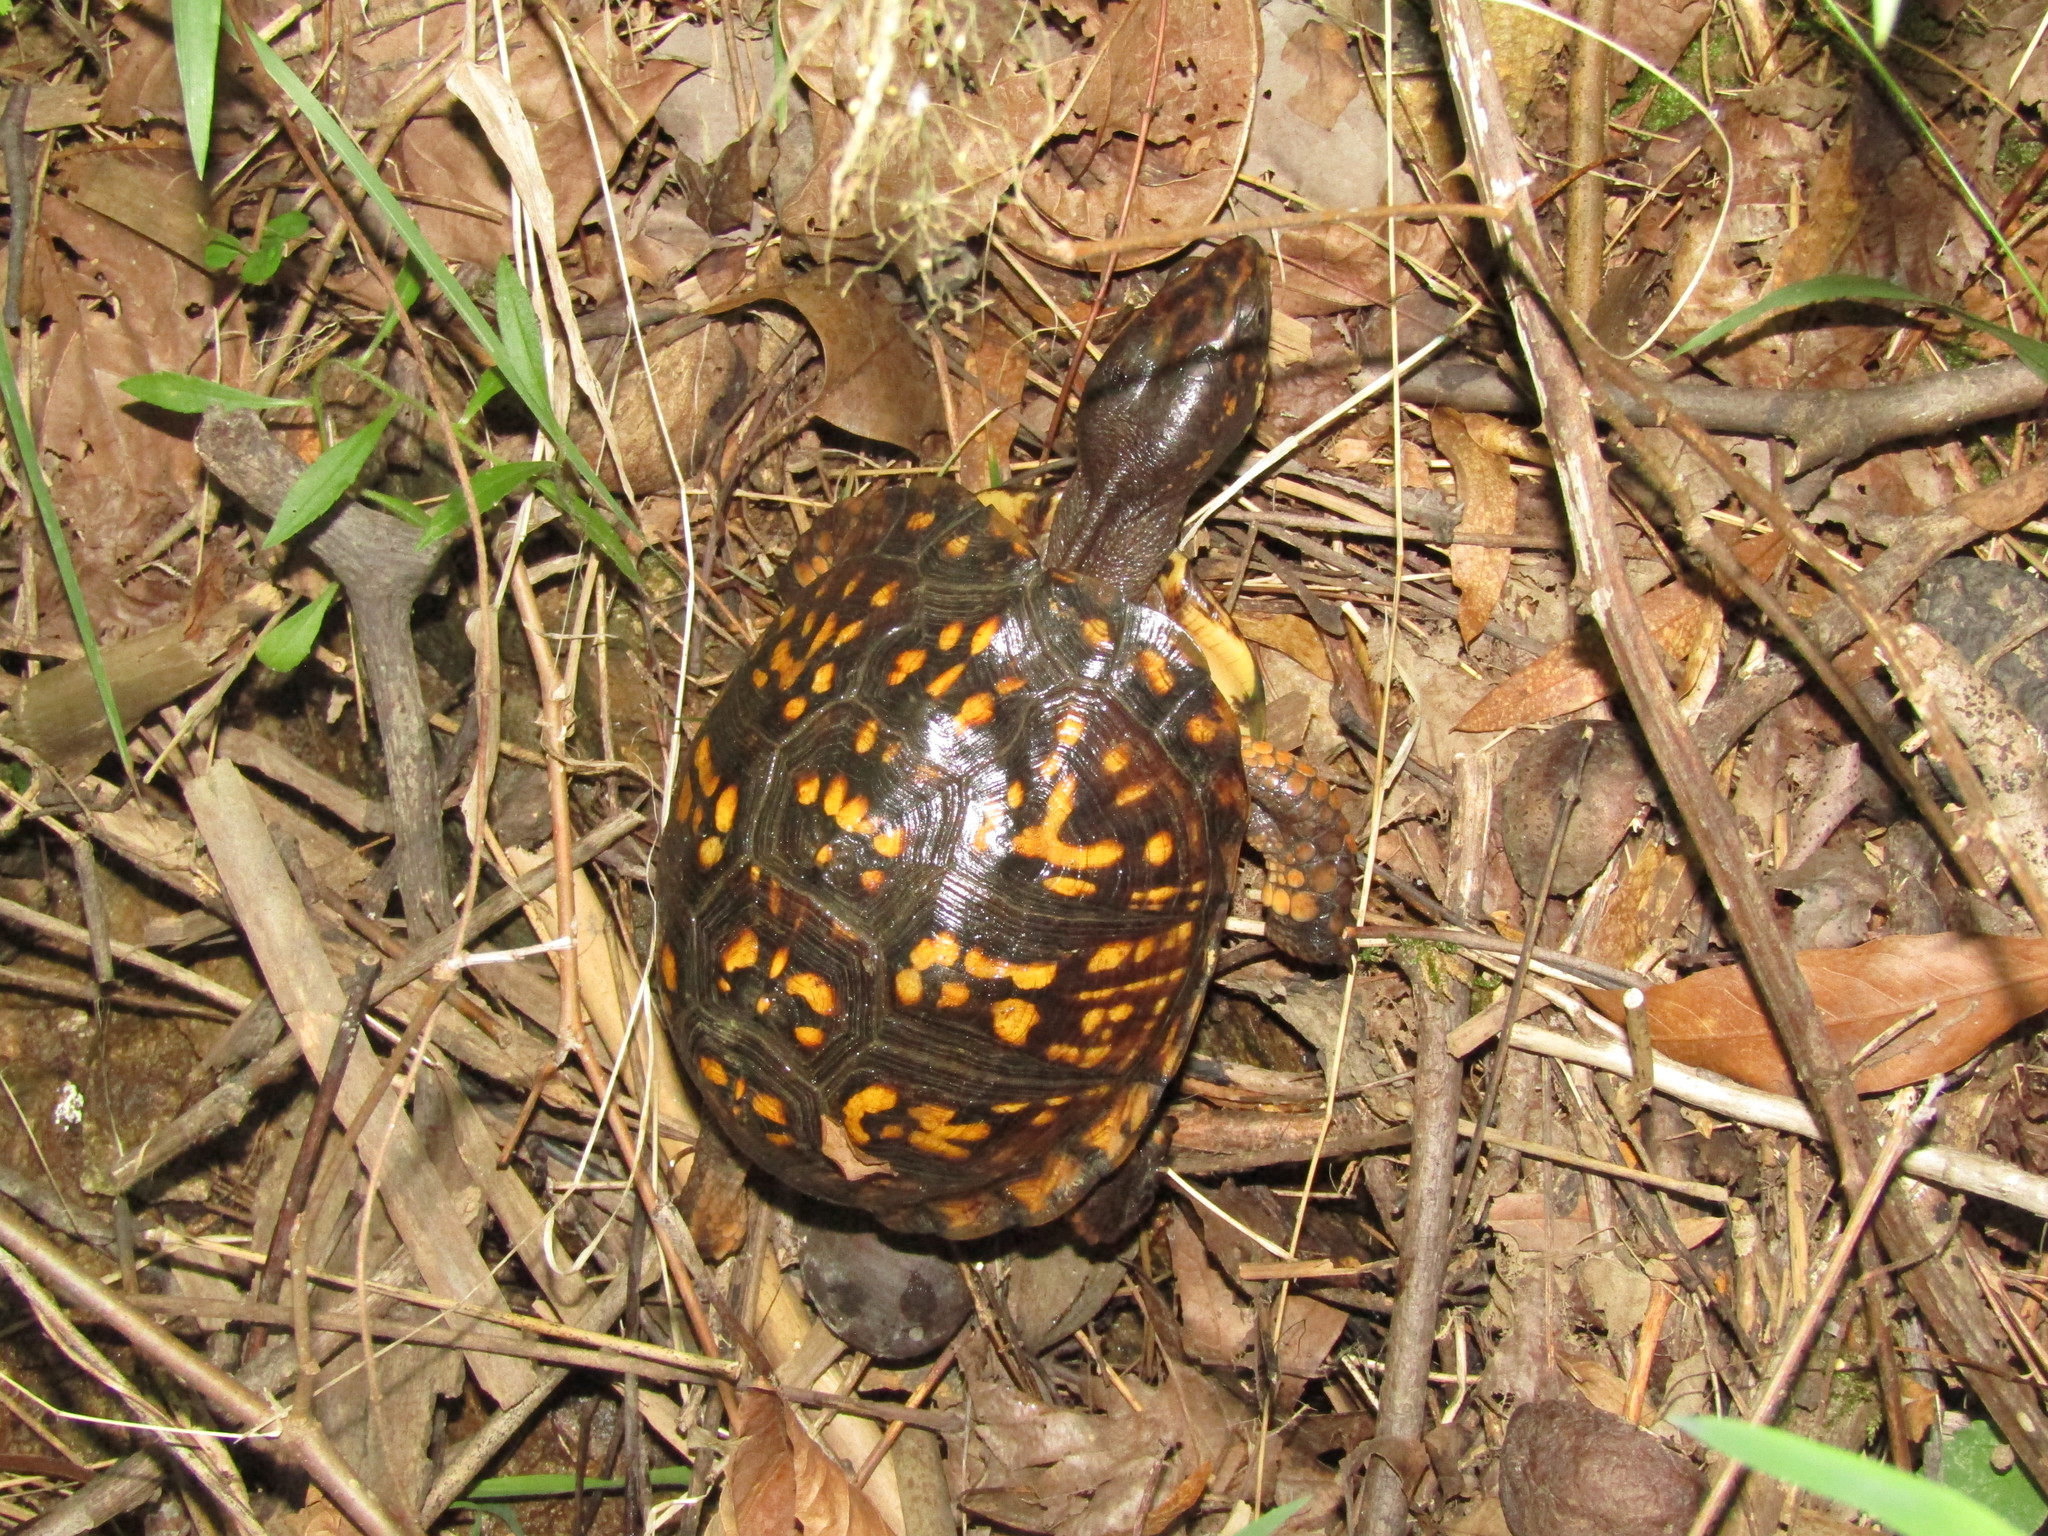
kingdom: Animalia
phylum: Chordata
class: Testudines
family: Emydidae
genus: Terrapene
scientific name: Terrapene carolina
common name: Common box turtle
